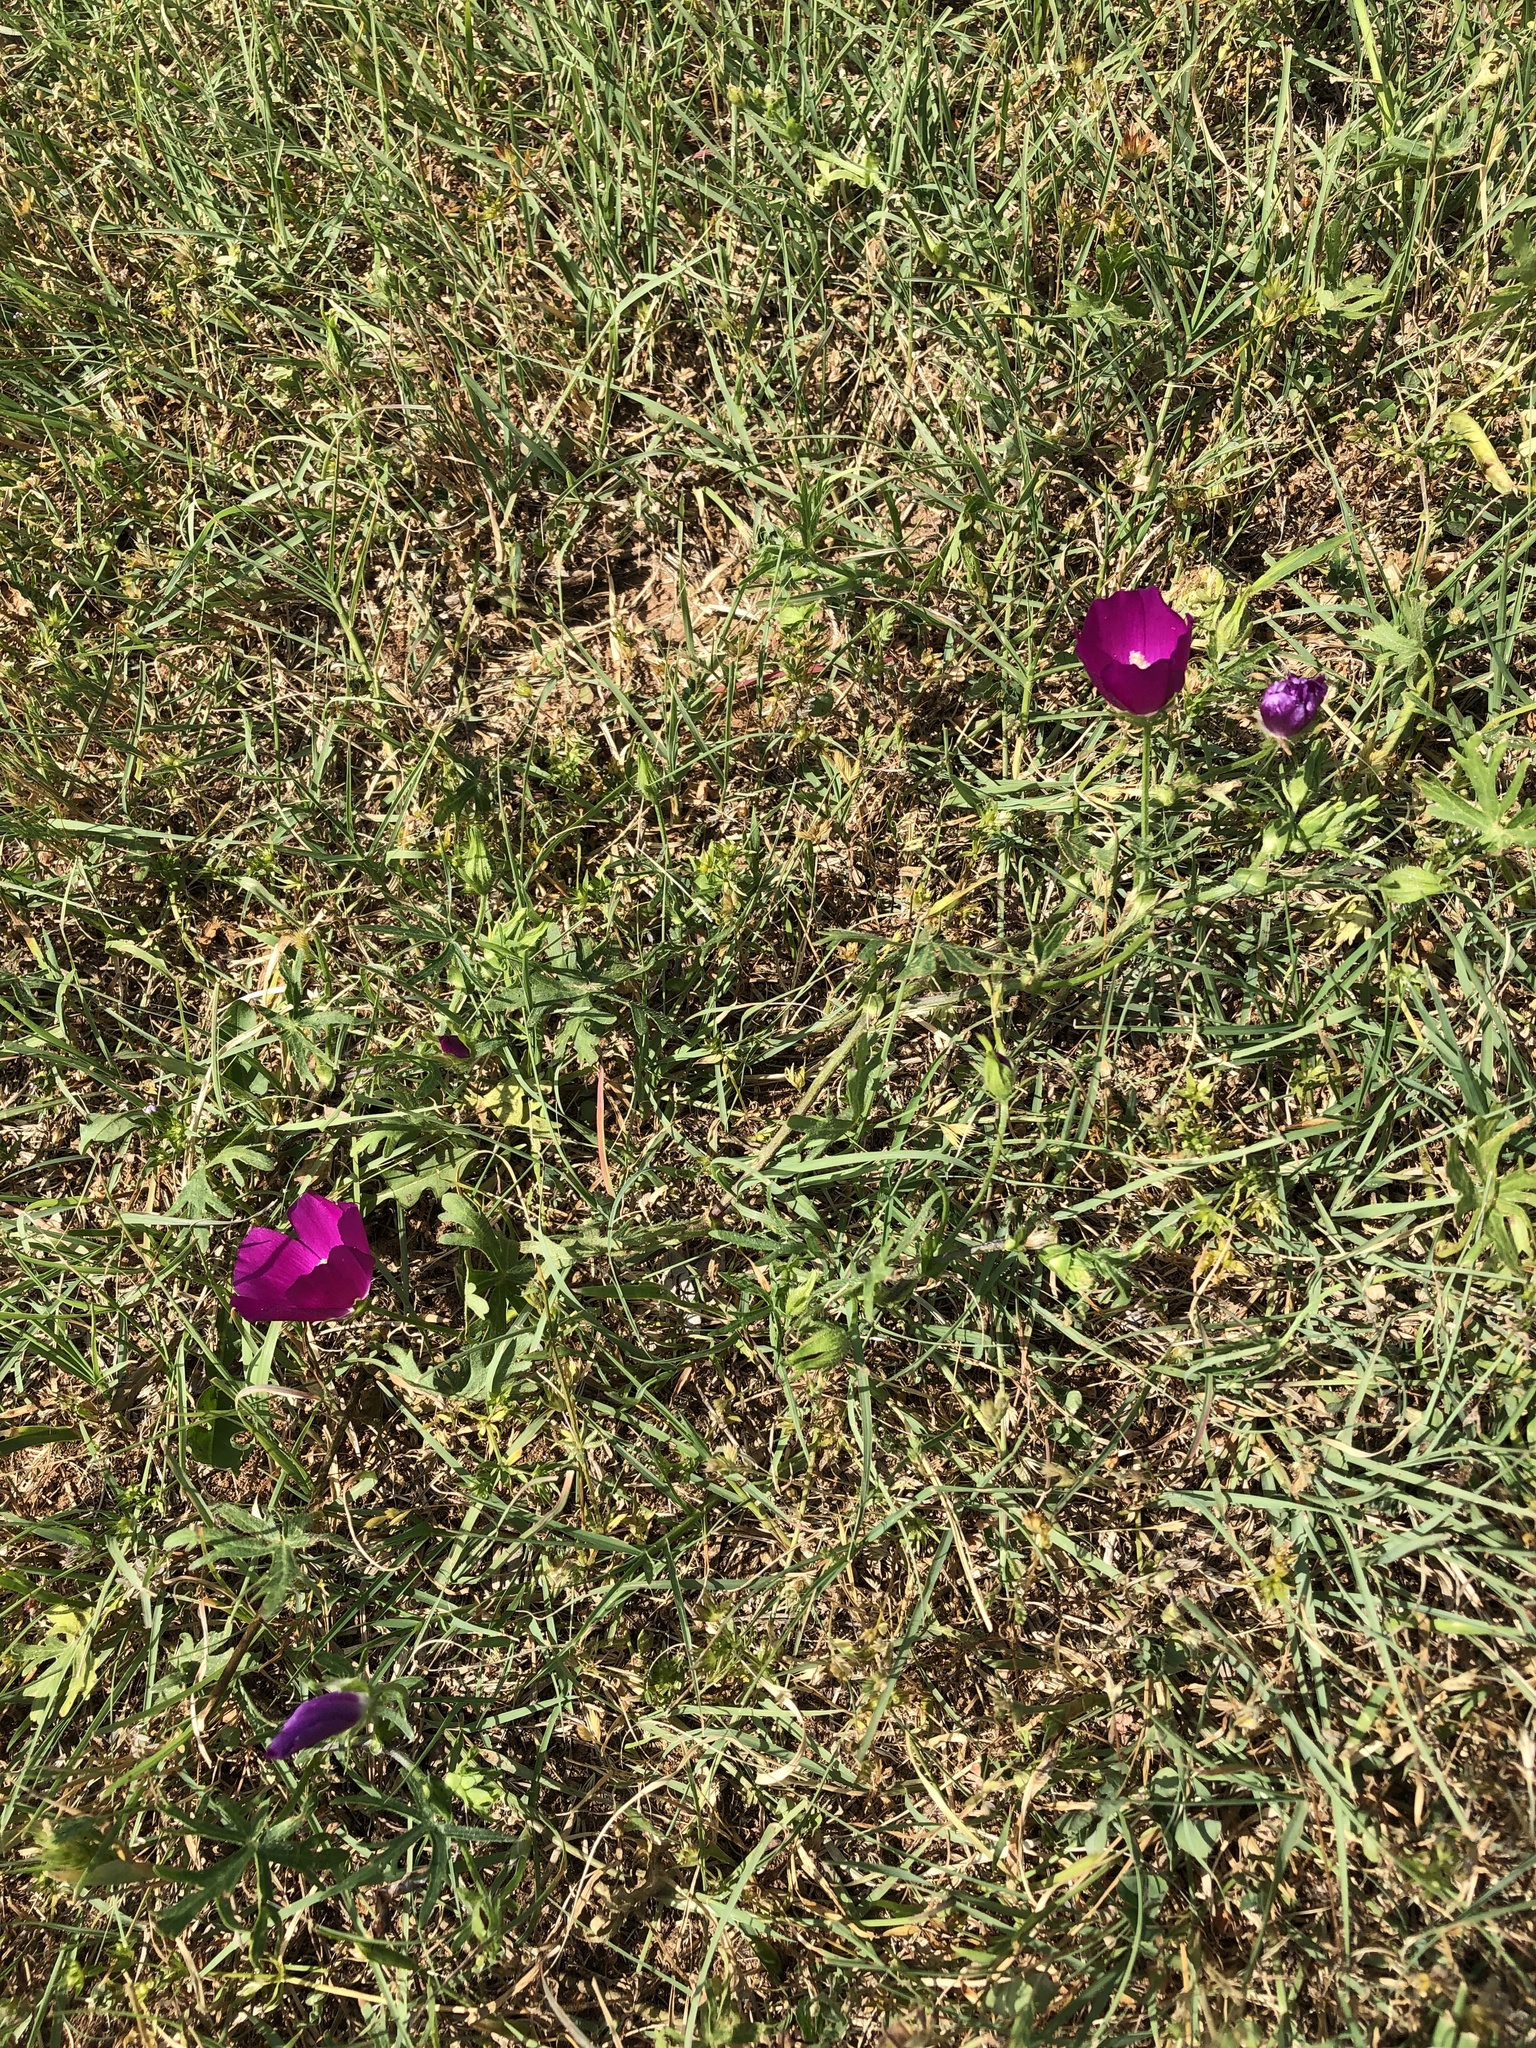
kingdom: Plantae
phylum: Tracheophyta
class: Magnoliopsida
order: Malvales
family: Malvaceae
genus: Callirhoe
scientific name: Callirhoe involucrata
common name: Purple poppy-mallow
